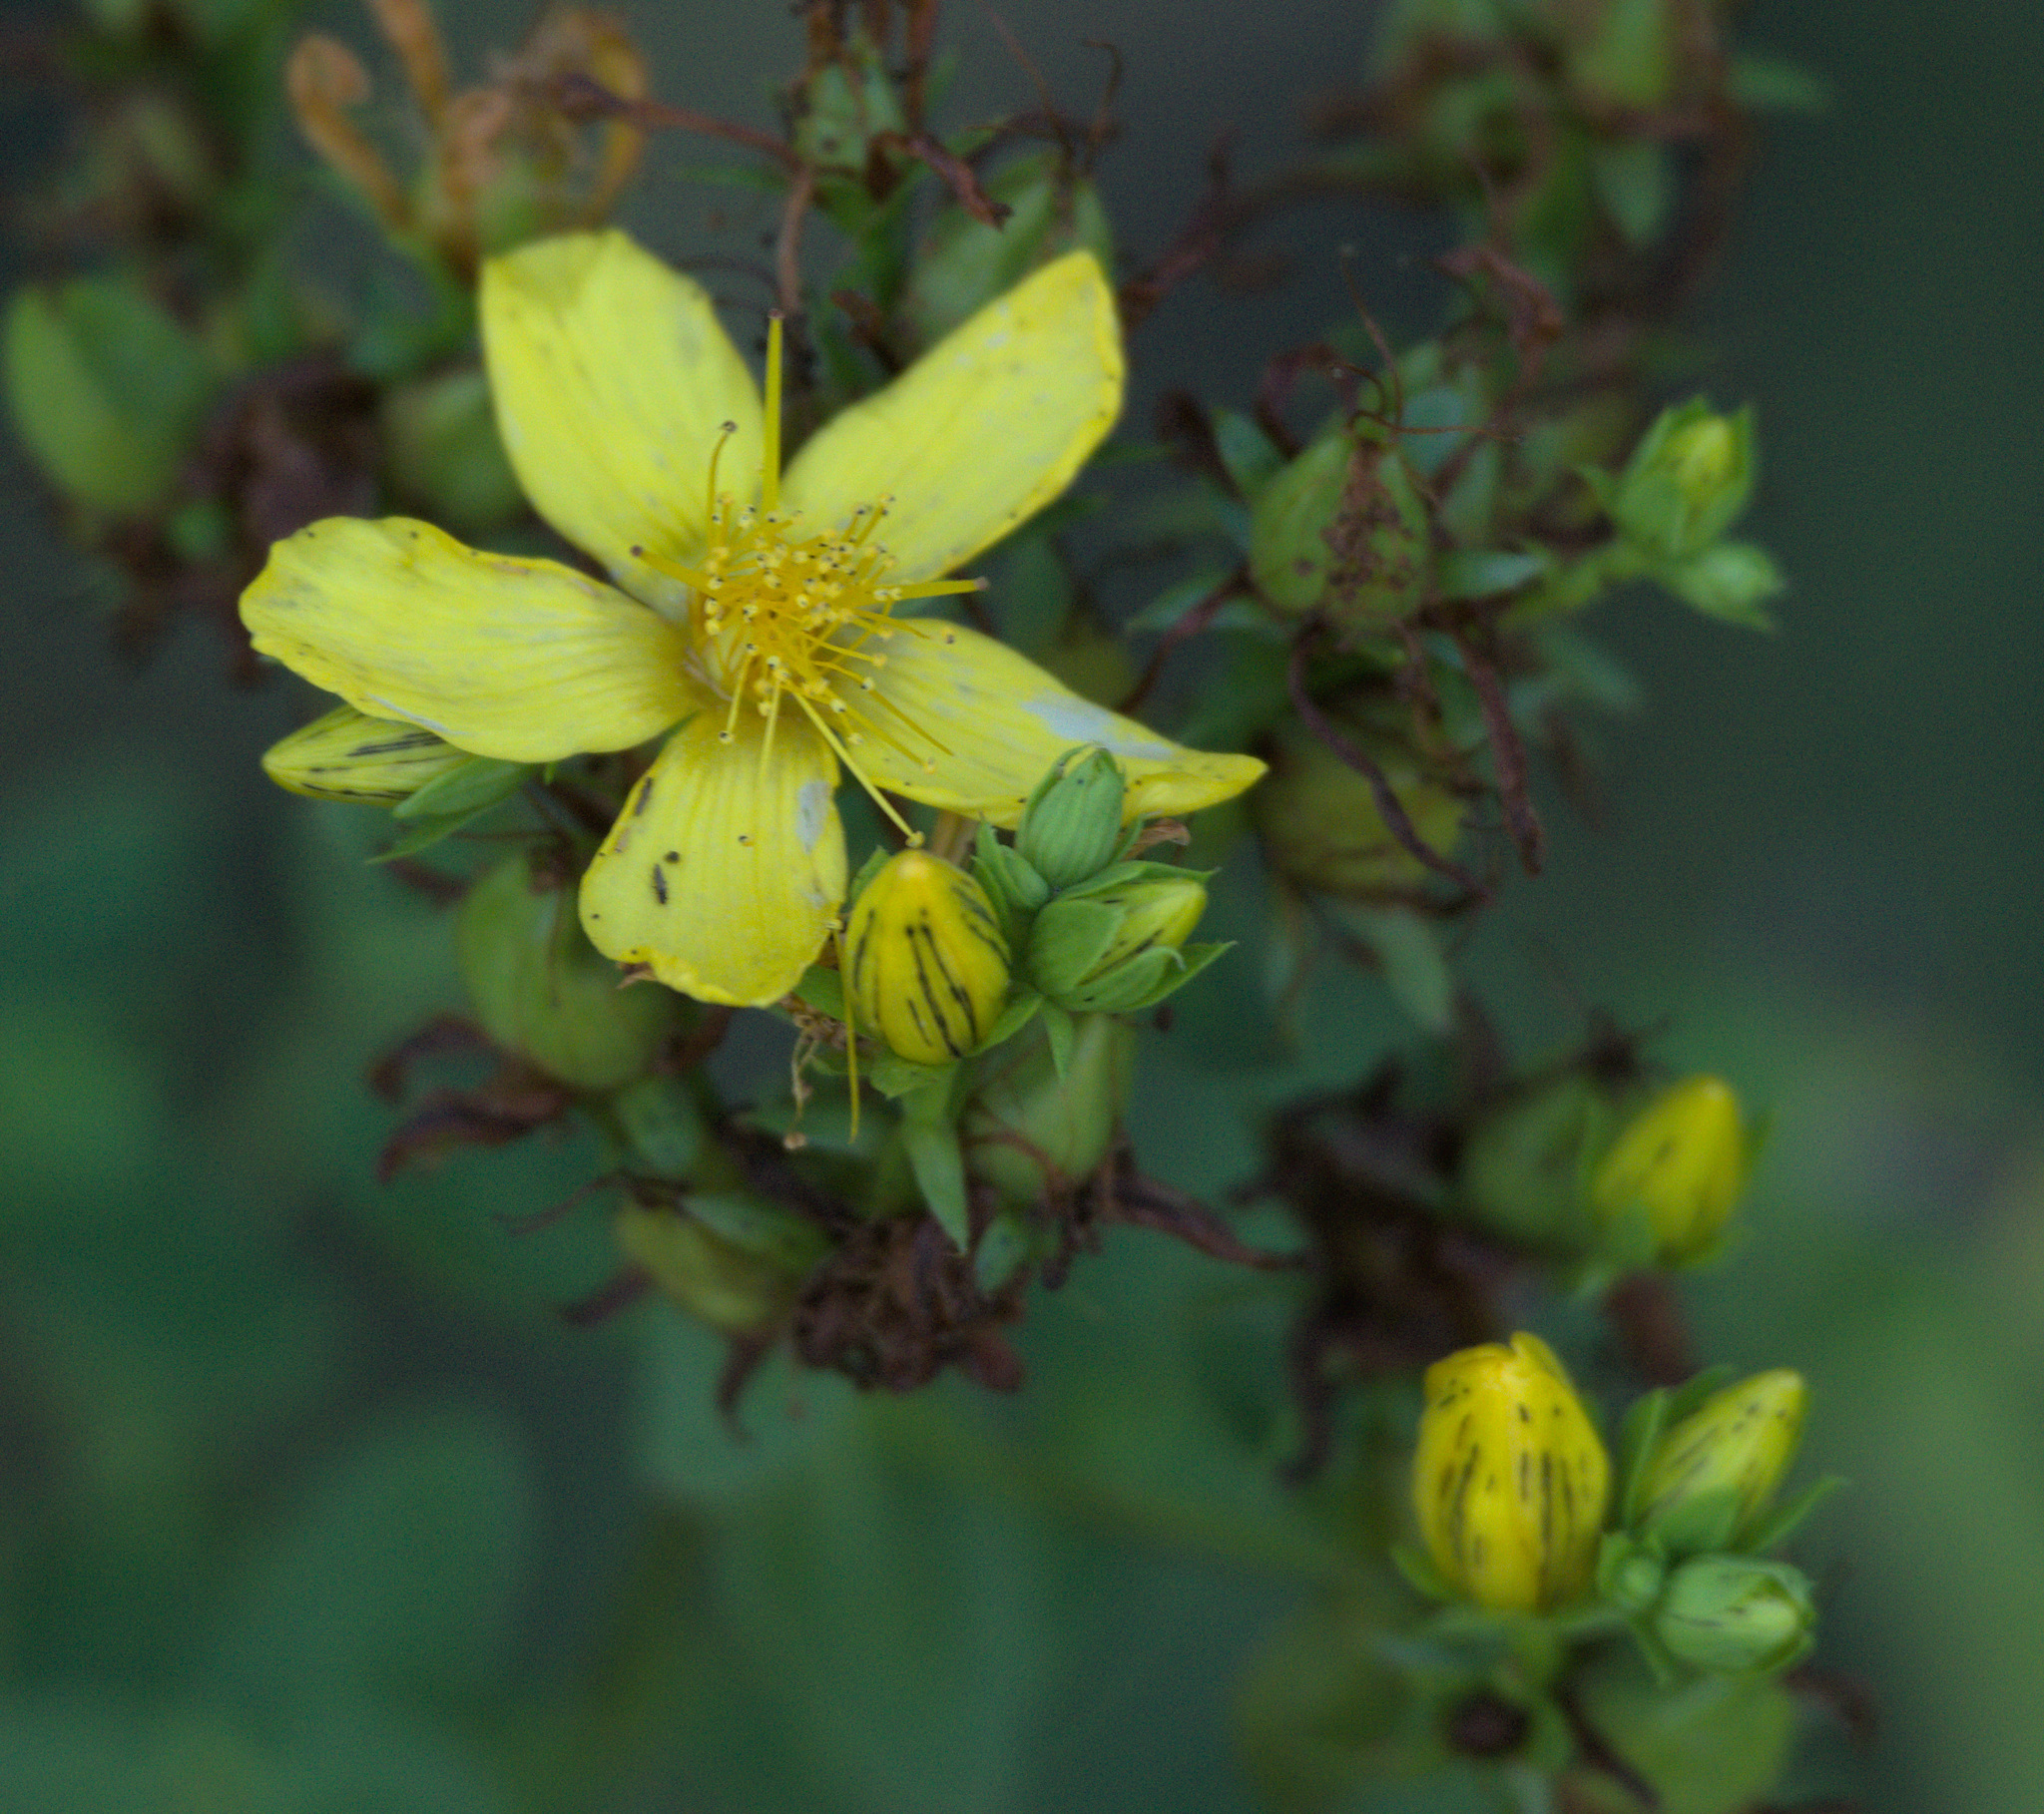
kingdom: Plantae
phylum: Tracheophyta
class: Magnoliopsida
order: Malpighiales
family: Hypericaceae
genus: Hypericum
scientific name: Hypericum perforatum
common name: Common st. johnswort
